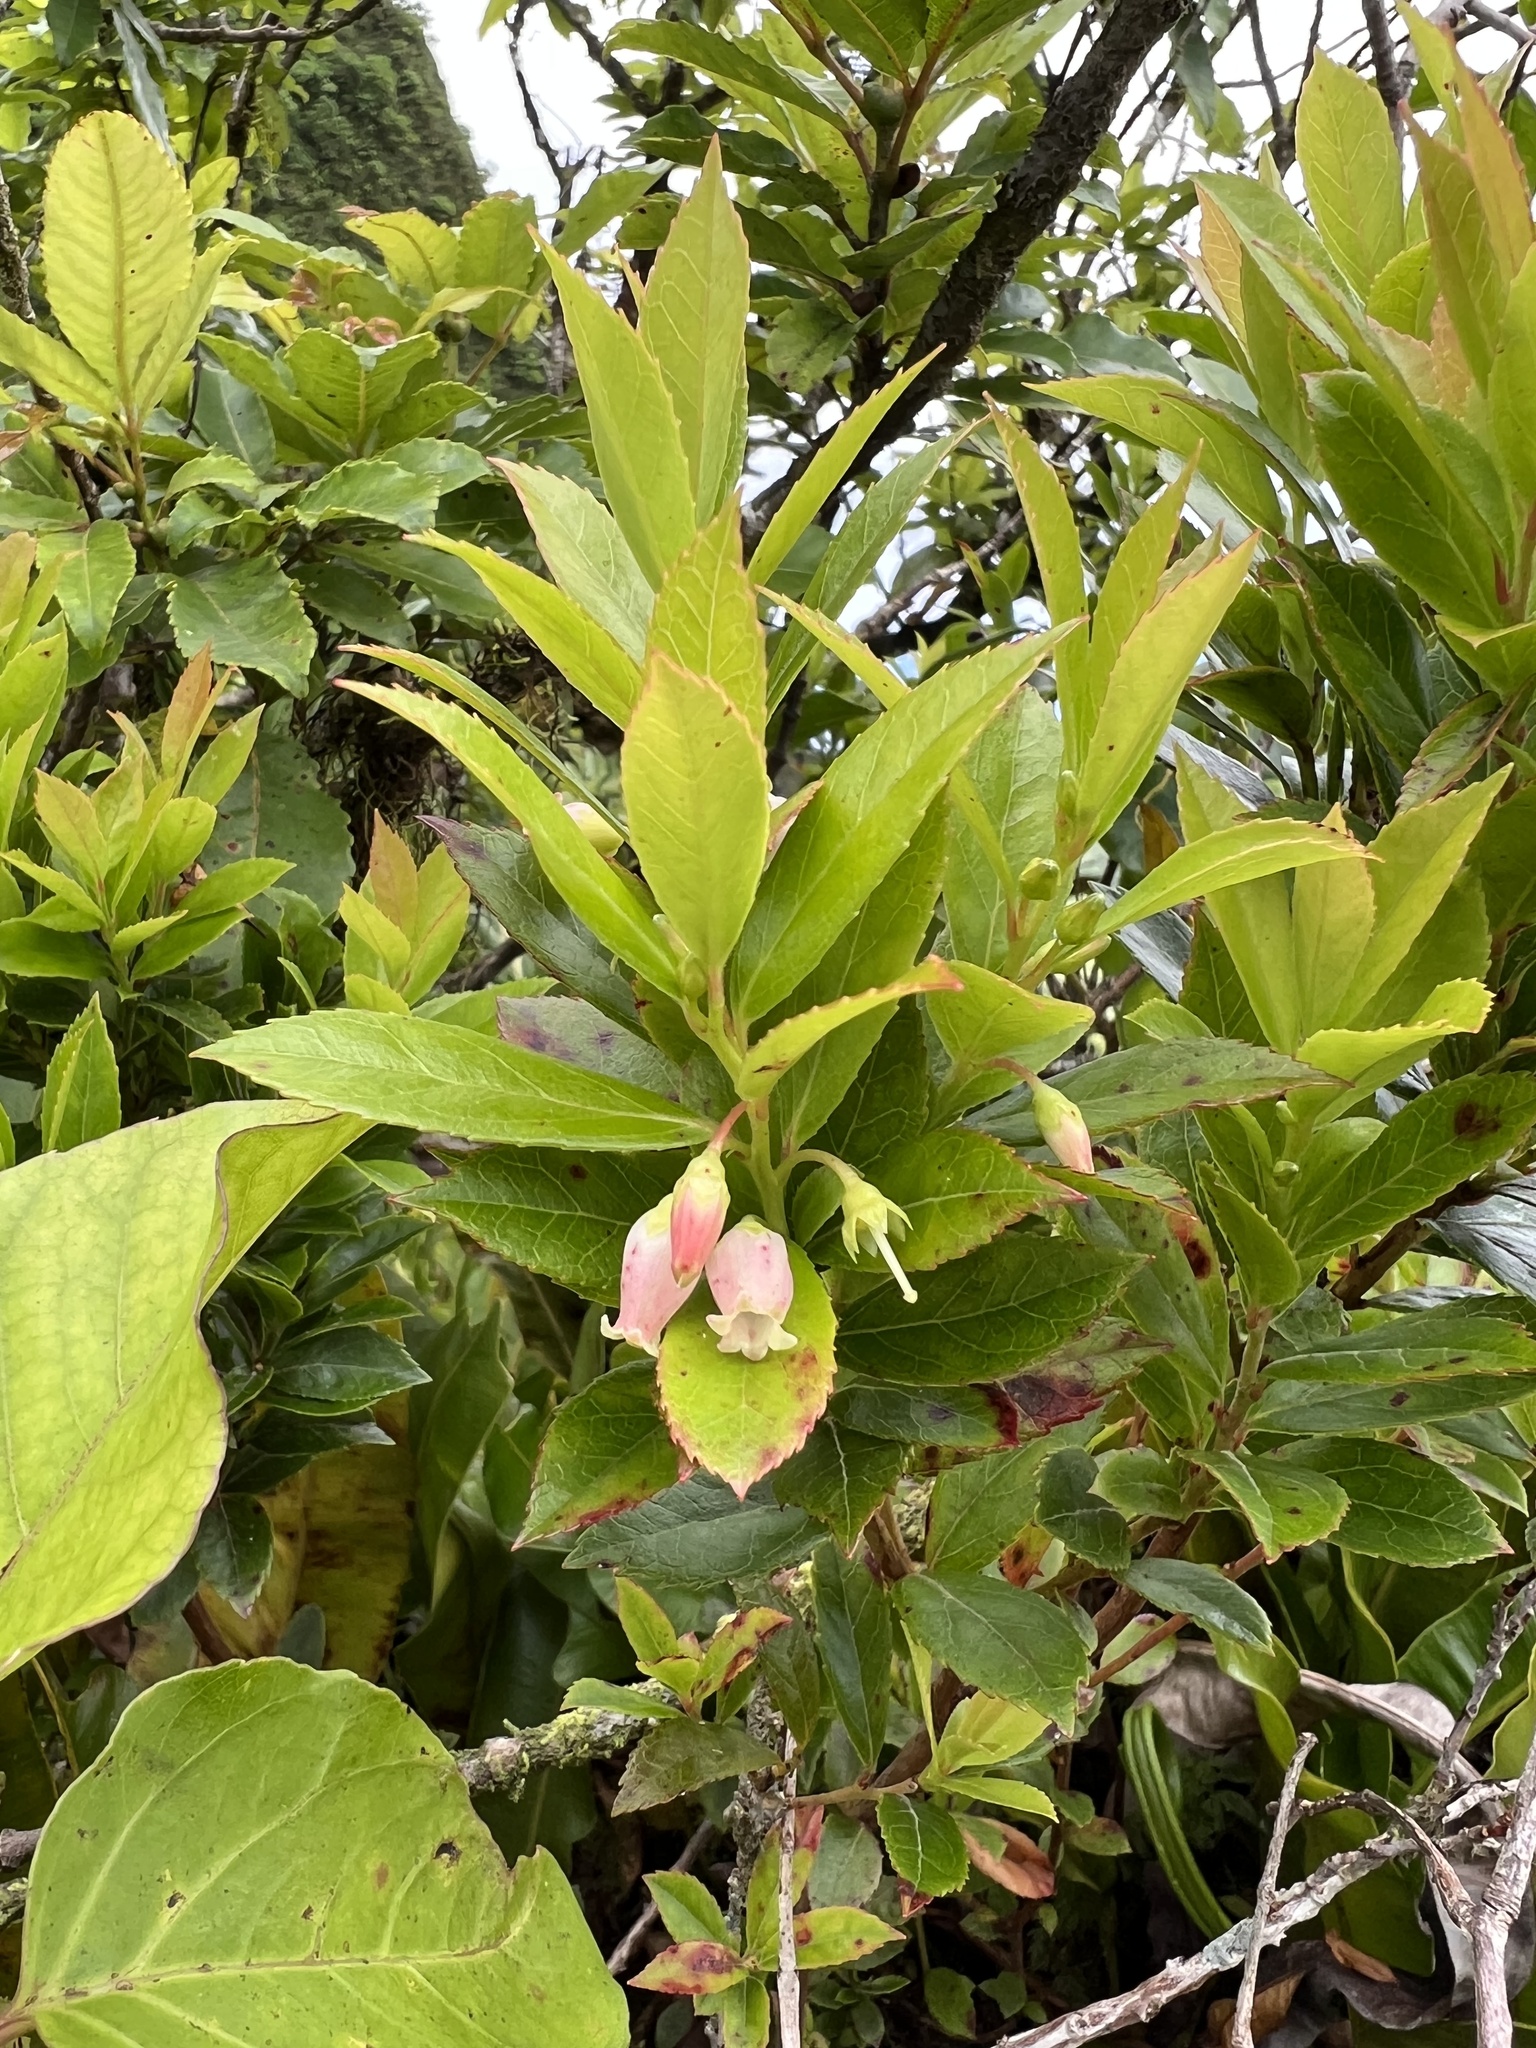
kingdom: Plantae
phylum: Tracheophyta
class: Magnoliopsida
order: Ericales
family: Ericaceae
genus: Vaccinium
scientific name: Vaccinium cereum
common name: East polynesian blueberry
